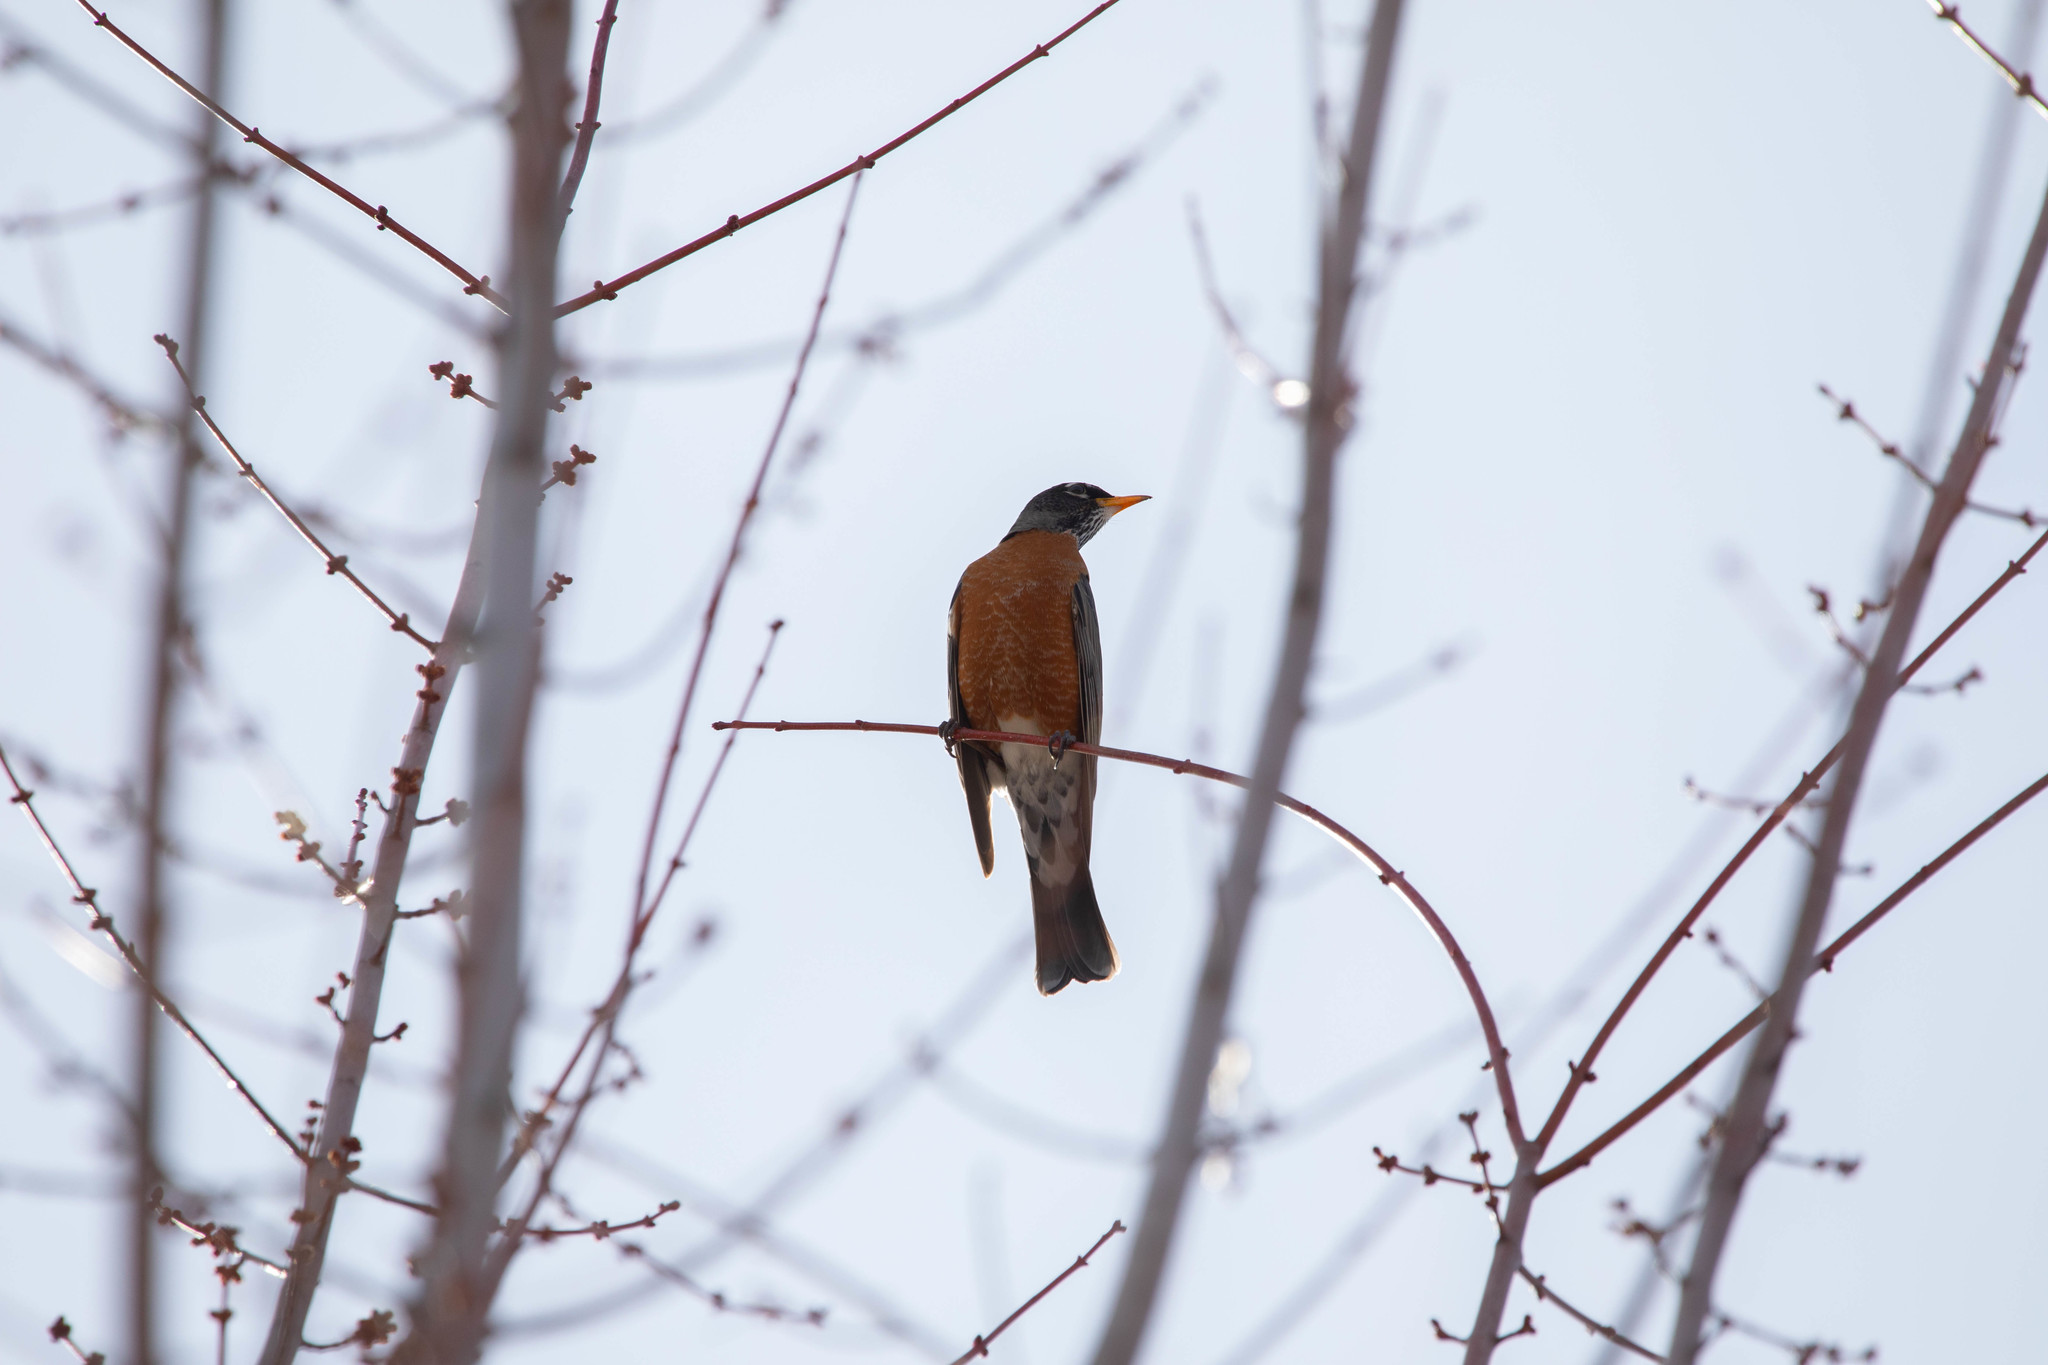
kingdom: Animalia
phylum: Chordata
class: Aves
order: Passeriformes
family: Turdidae
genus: Turdus
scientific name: Turdus migratorius
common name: American robin
